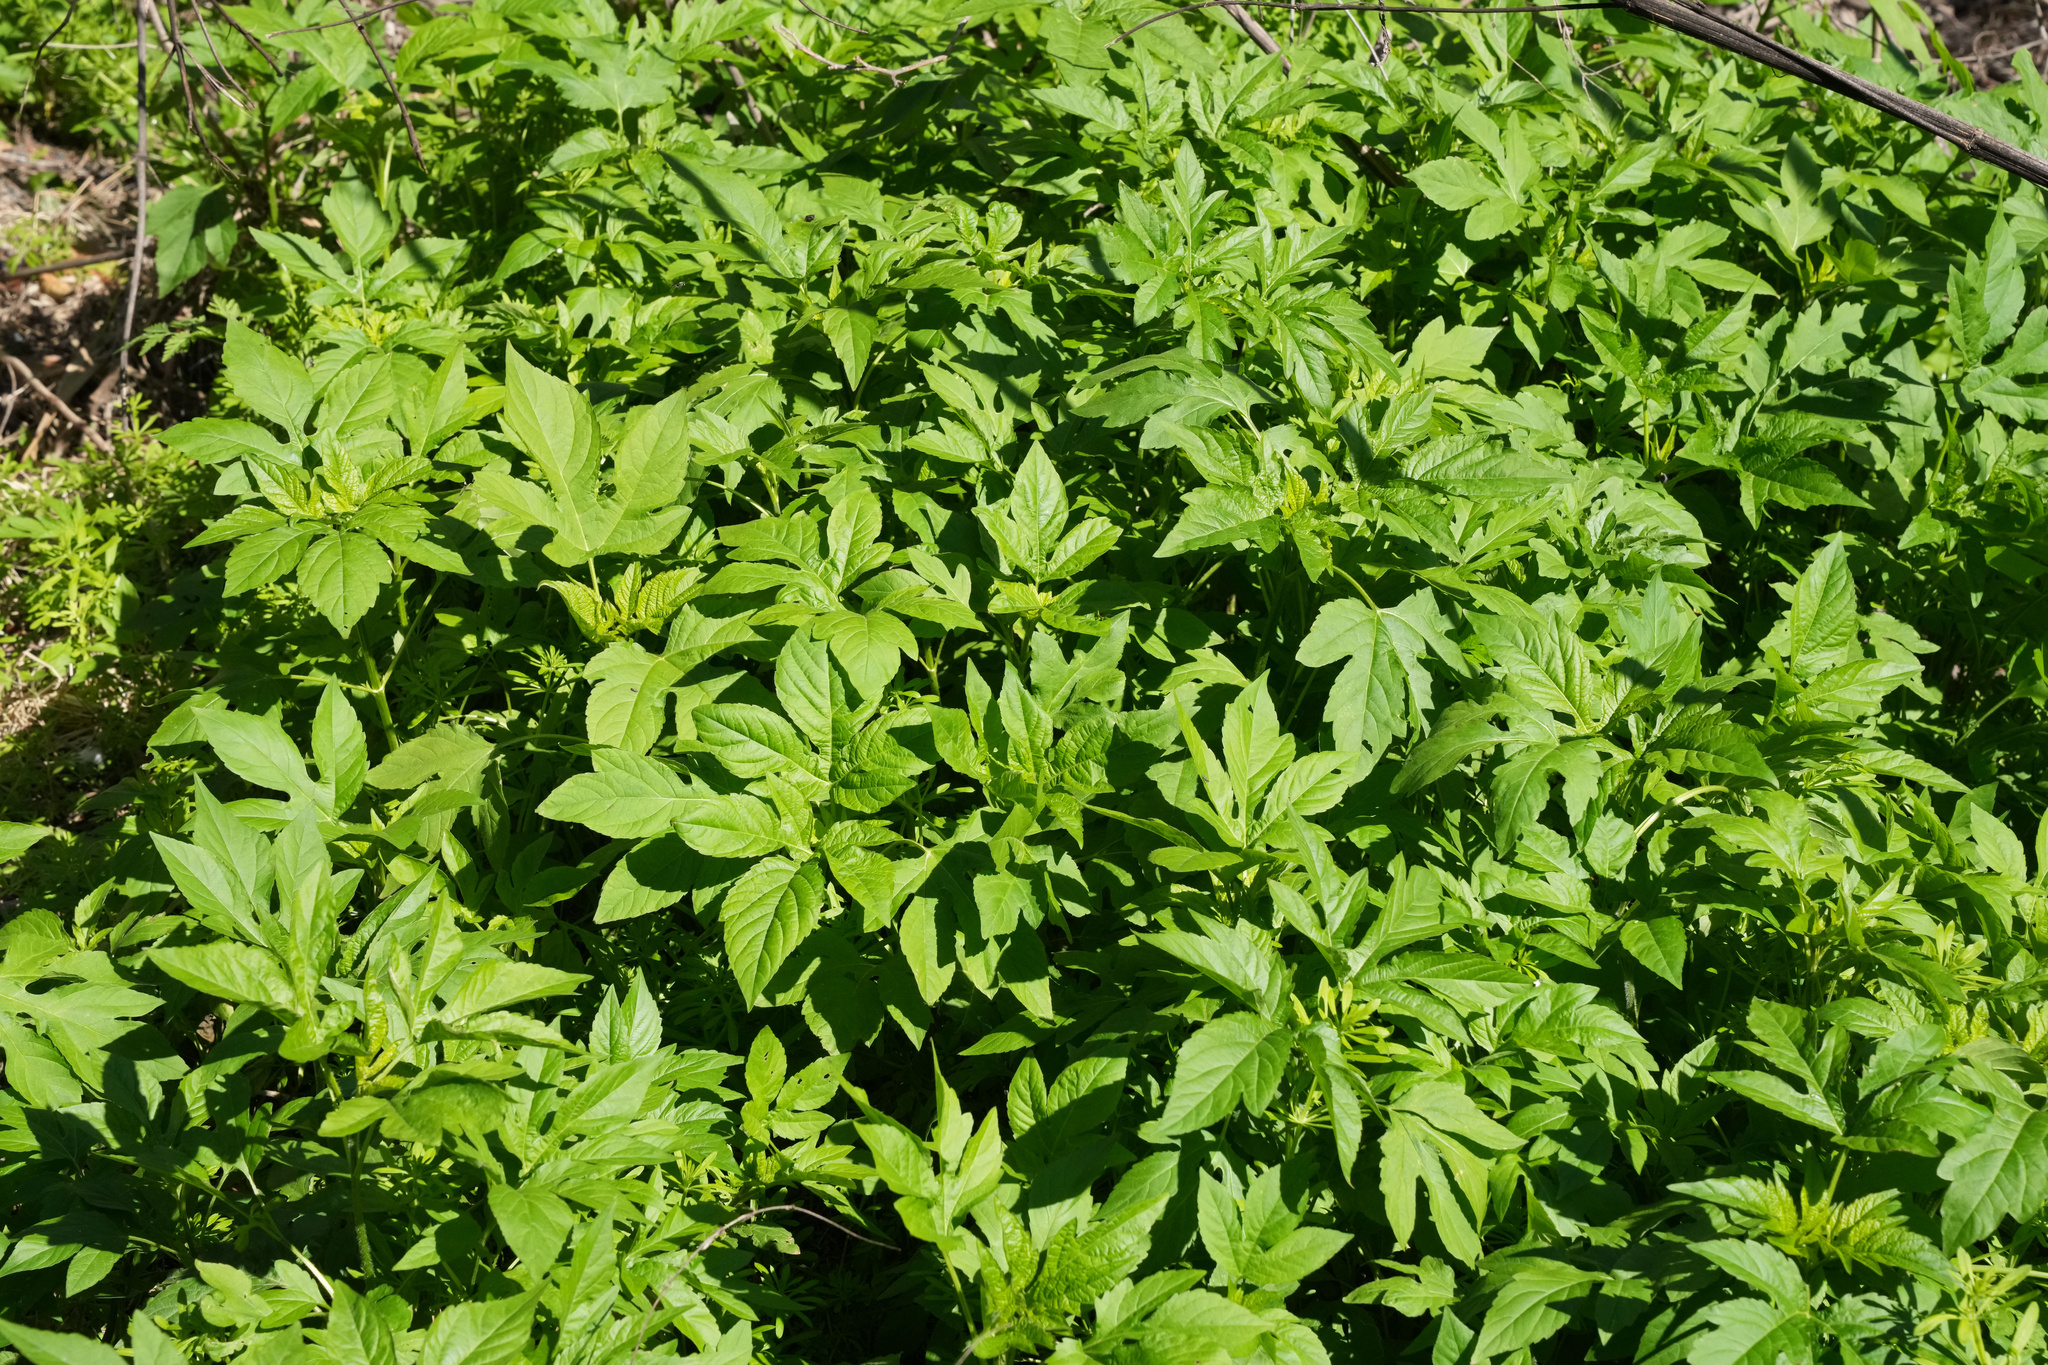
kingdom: Plantae
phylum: Tracheophyta
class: Magnoliopsida
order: Asterales
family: Asteraceae
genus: Ambrosia
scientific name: Ambrosia trifida
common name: Giant ragweed
